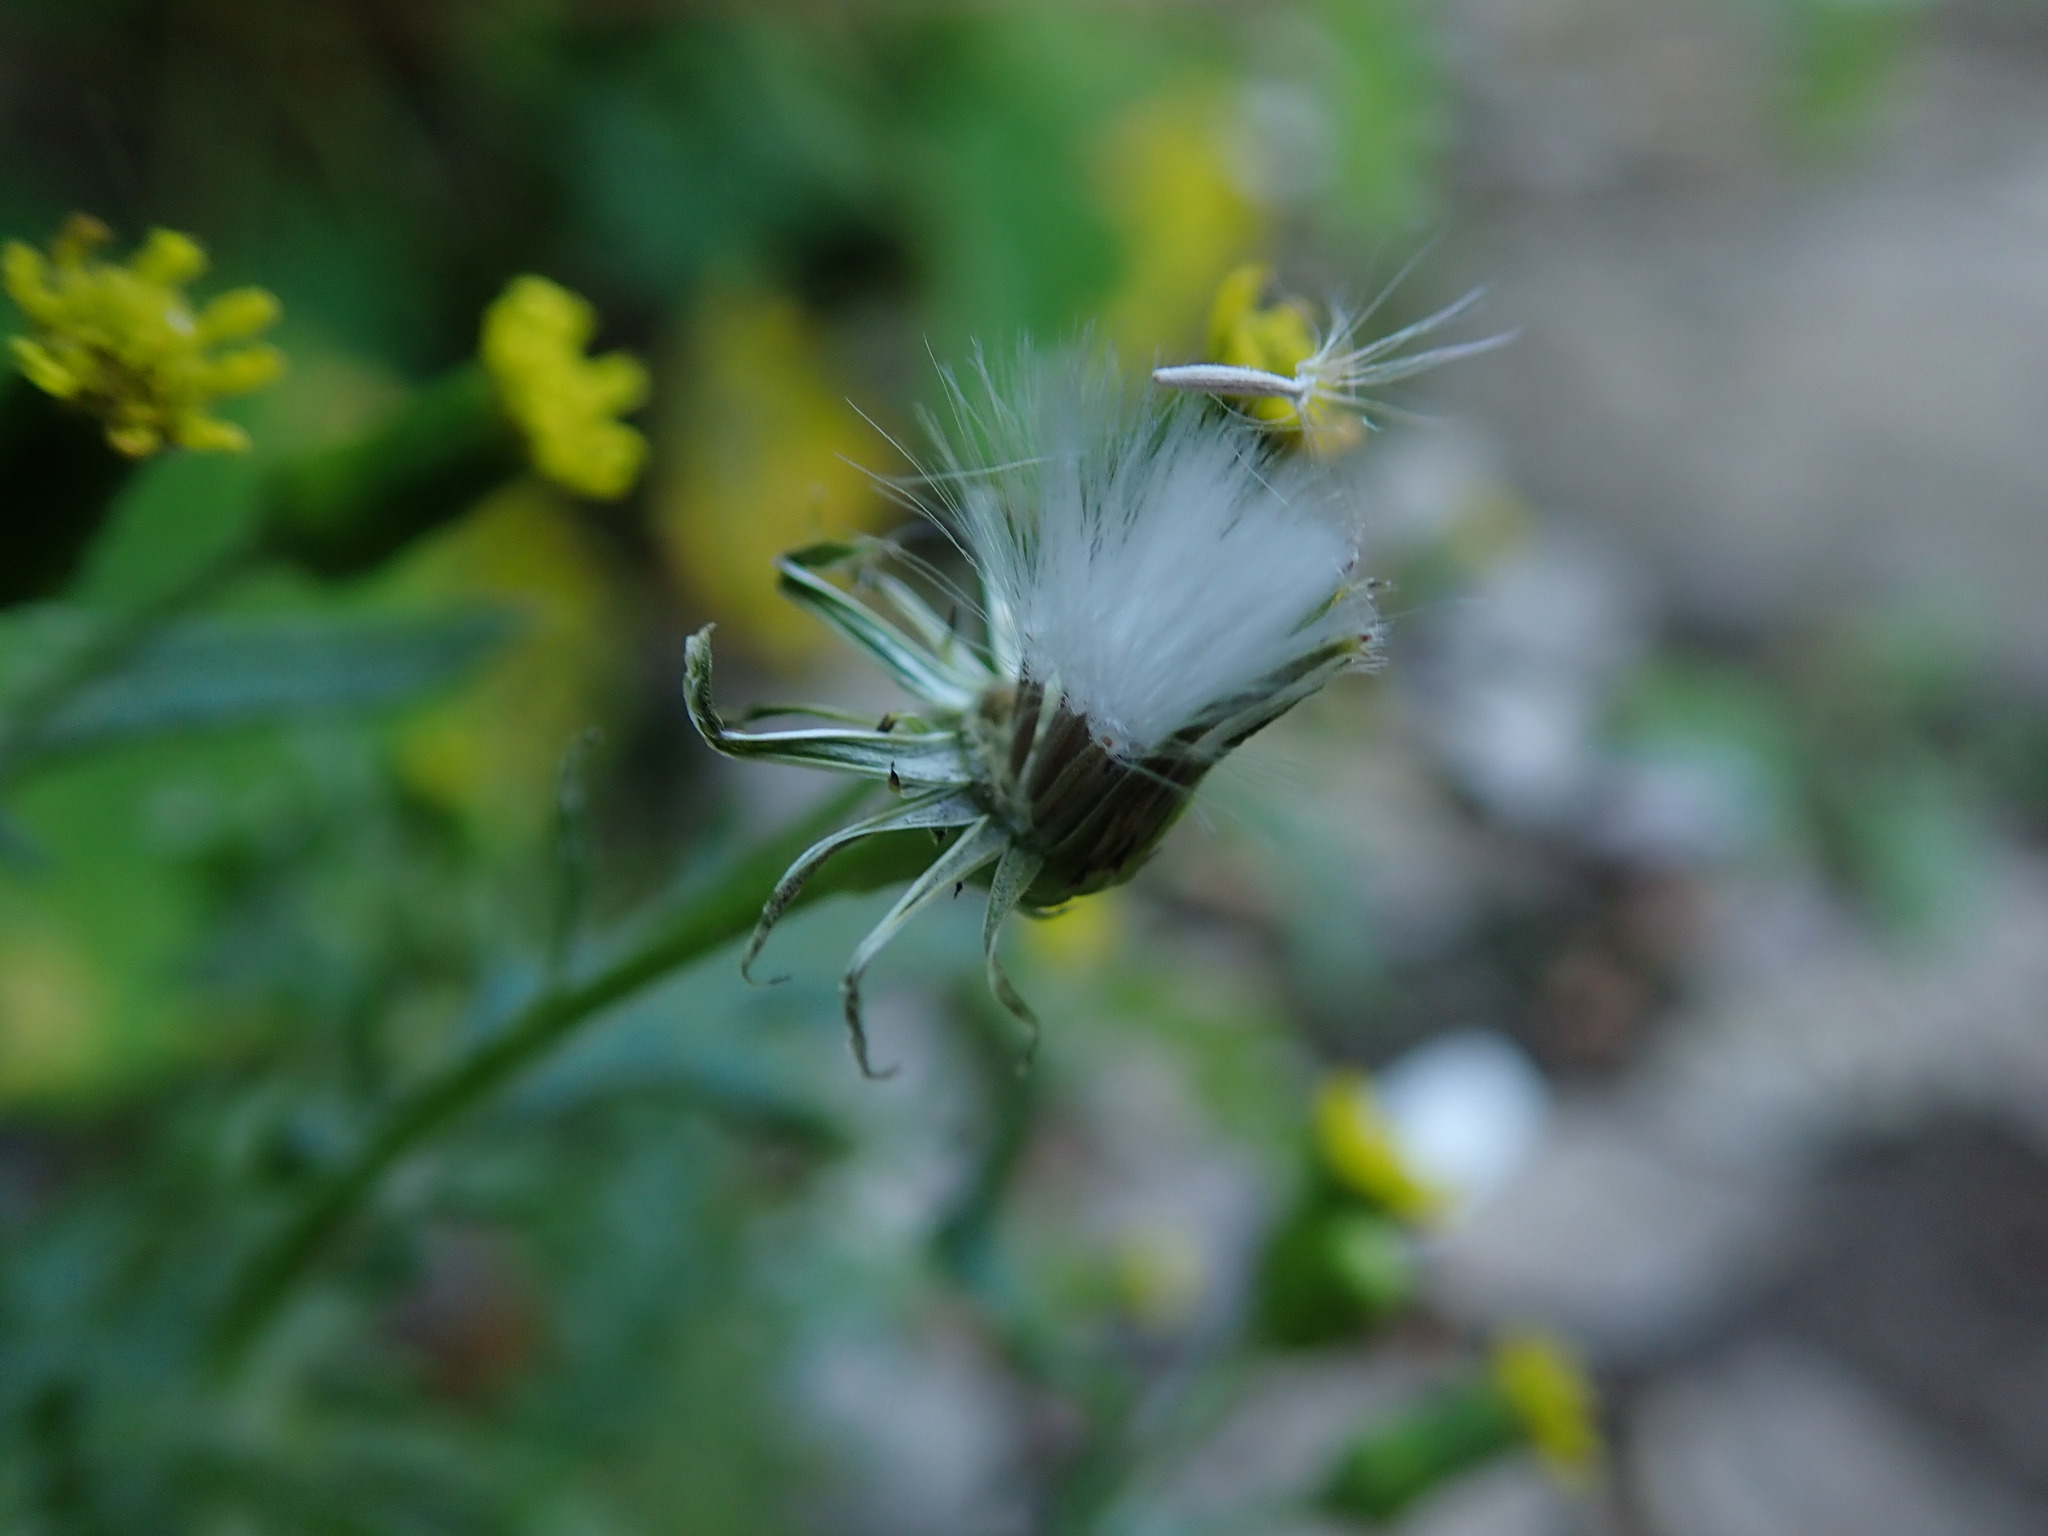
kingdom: Plantae
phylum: Tracheophyta
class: Magnoliopsida
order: Asterales
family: Asteraceae
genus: Senecio
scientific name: Senecio vulgaris
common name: Old-man-in-the-spring
